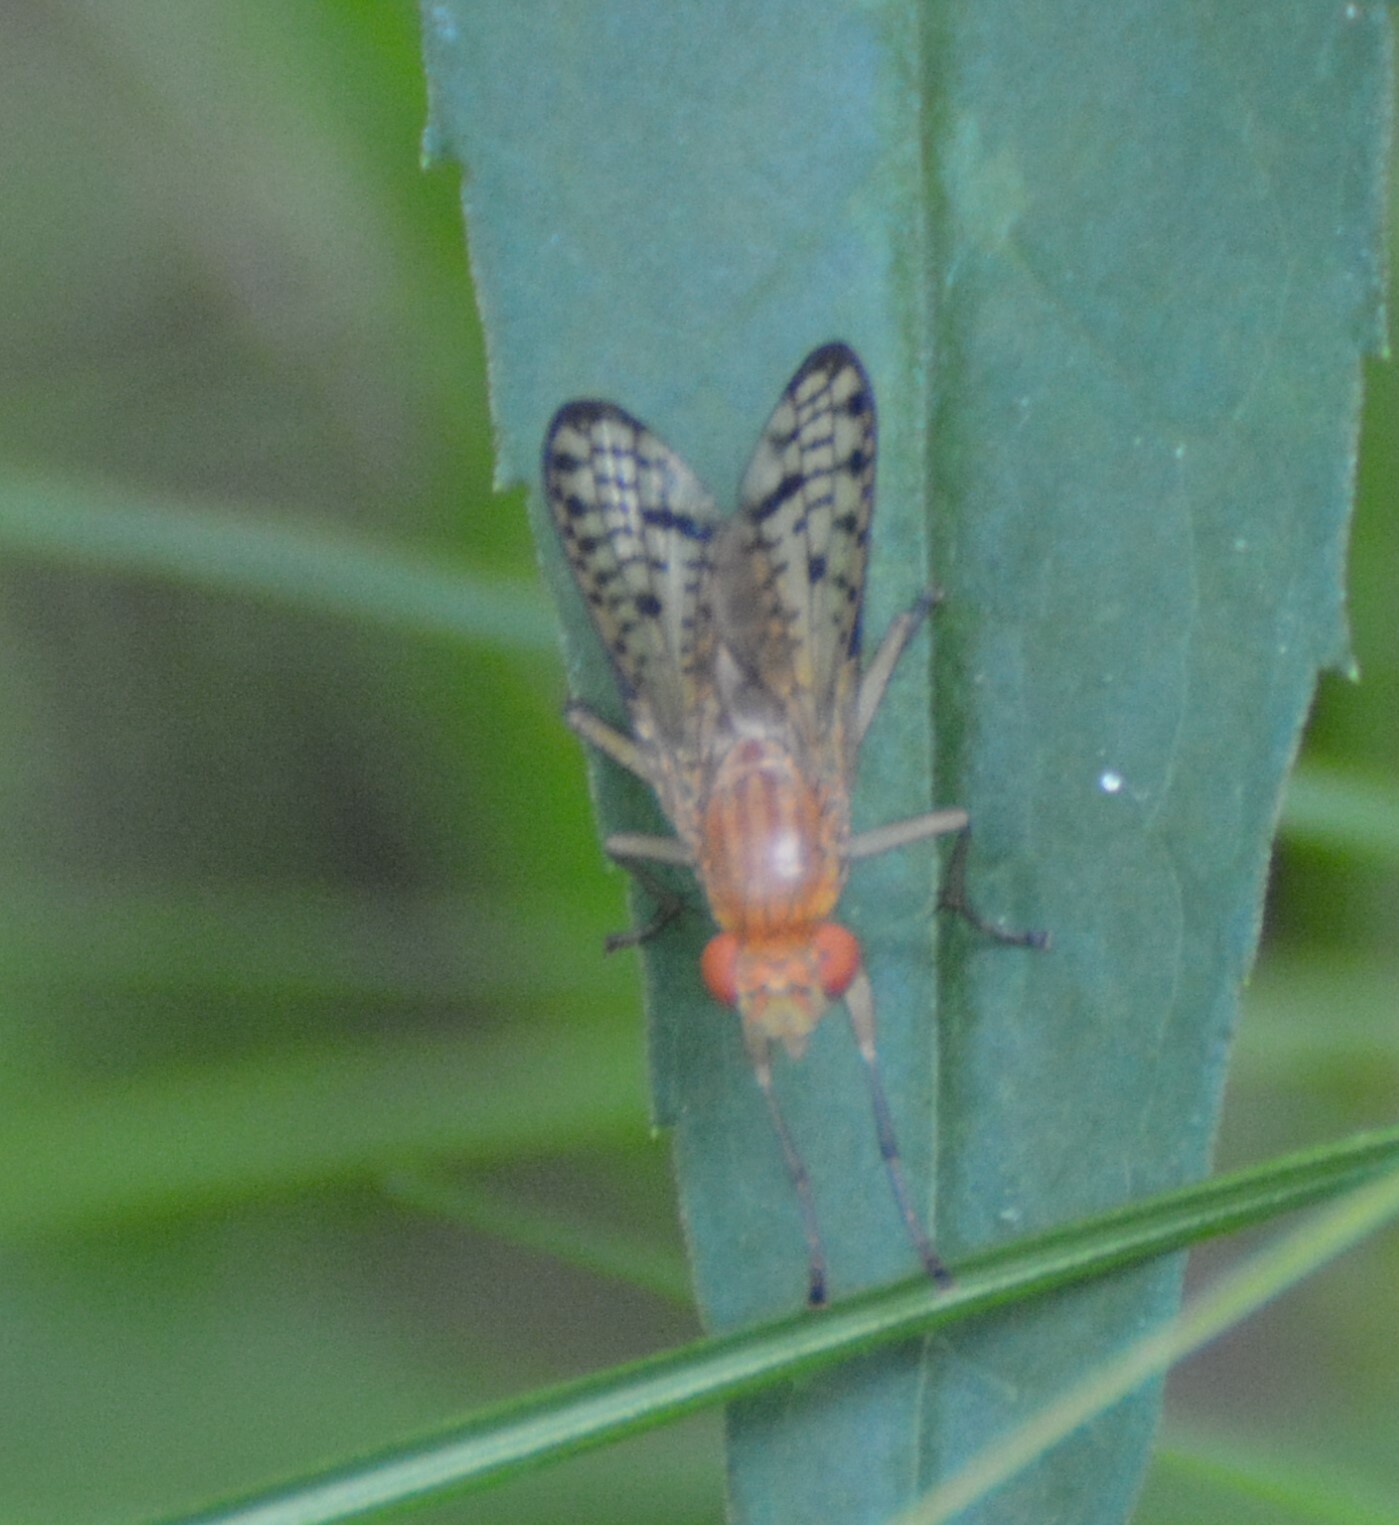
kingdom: Animalia
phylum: Arthropoda
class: Insecta
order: Diptera
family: Sciomyzidae
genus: Tetanocera
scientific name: Tetanocera valida
